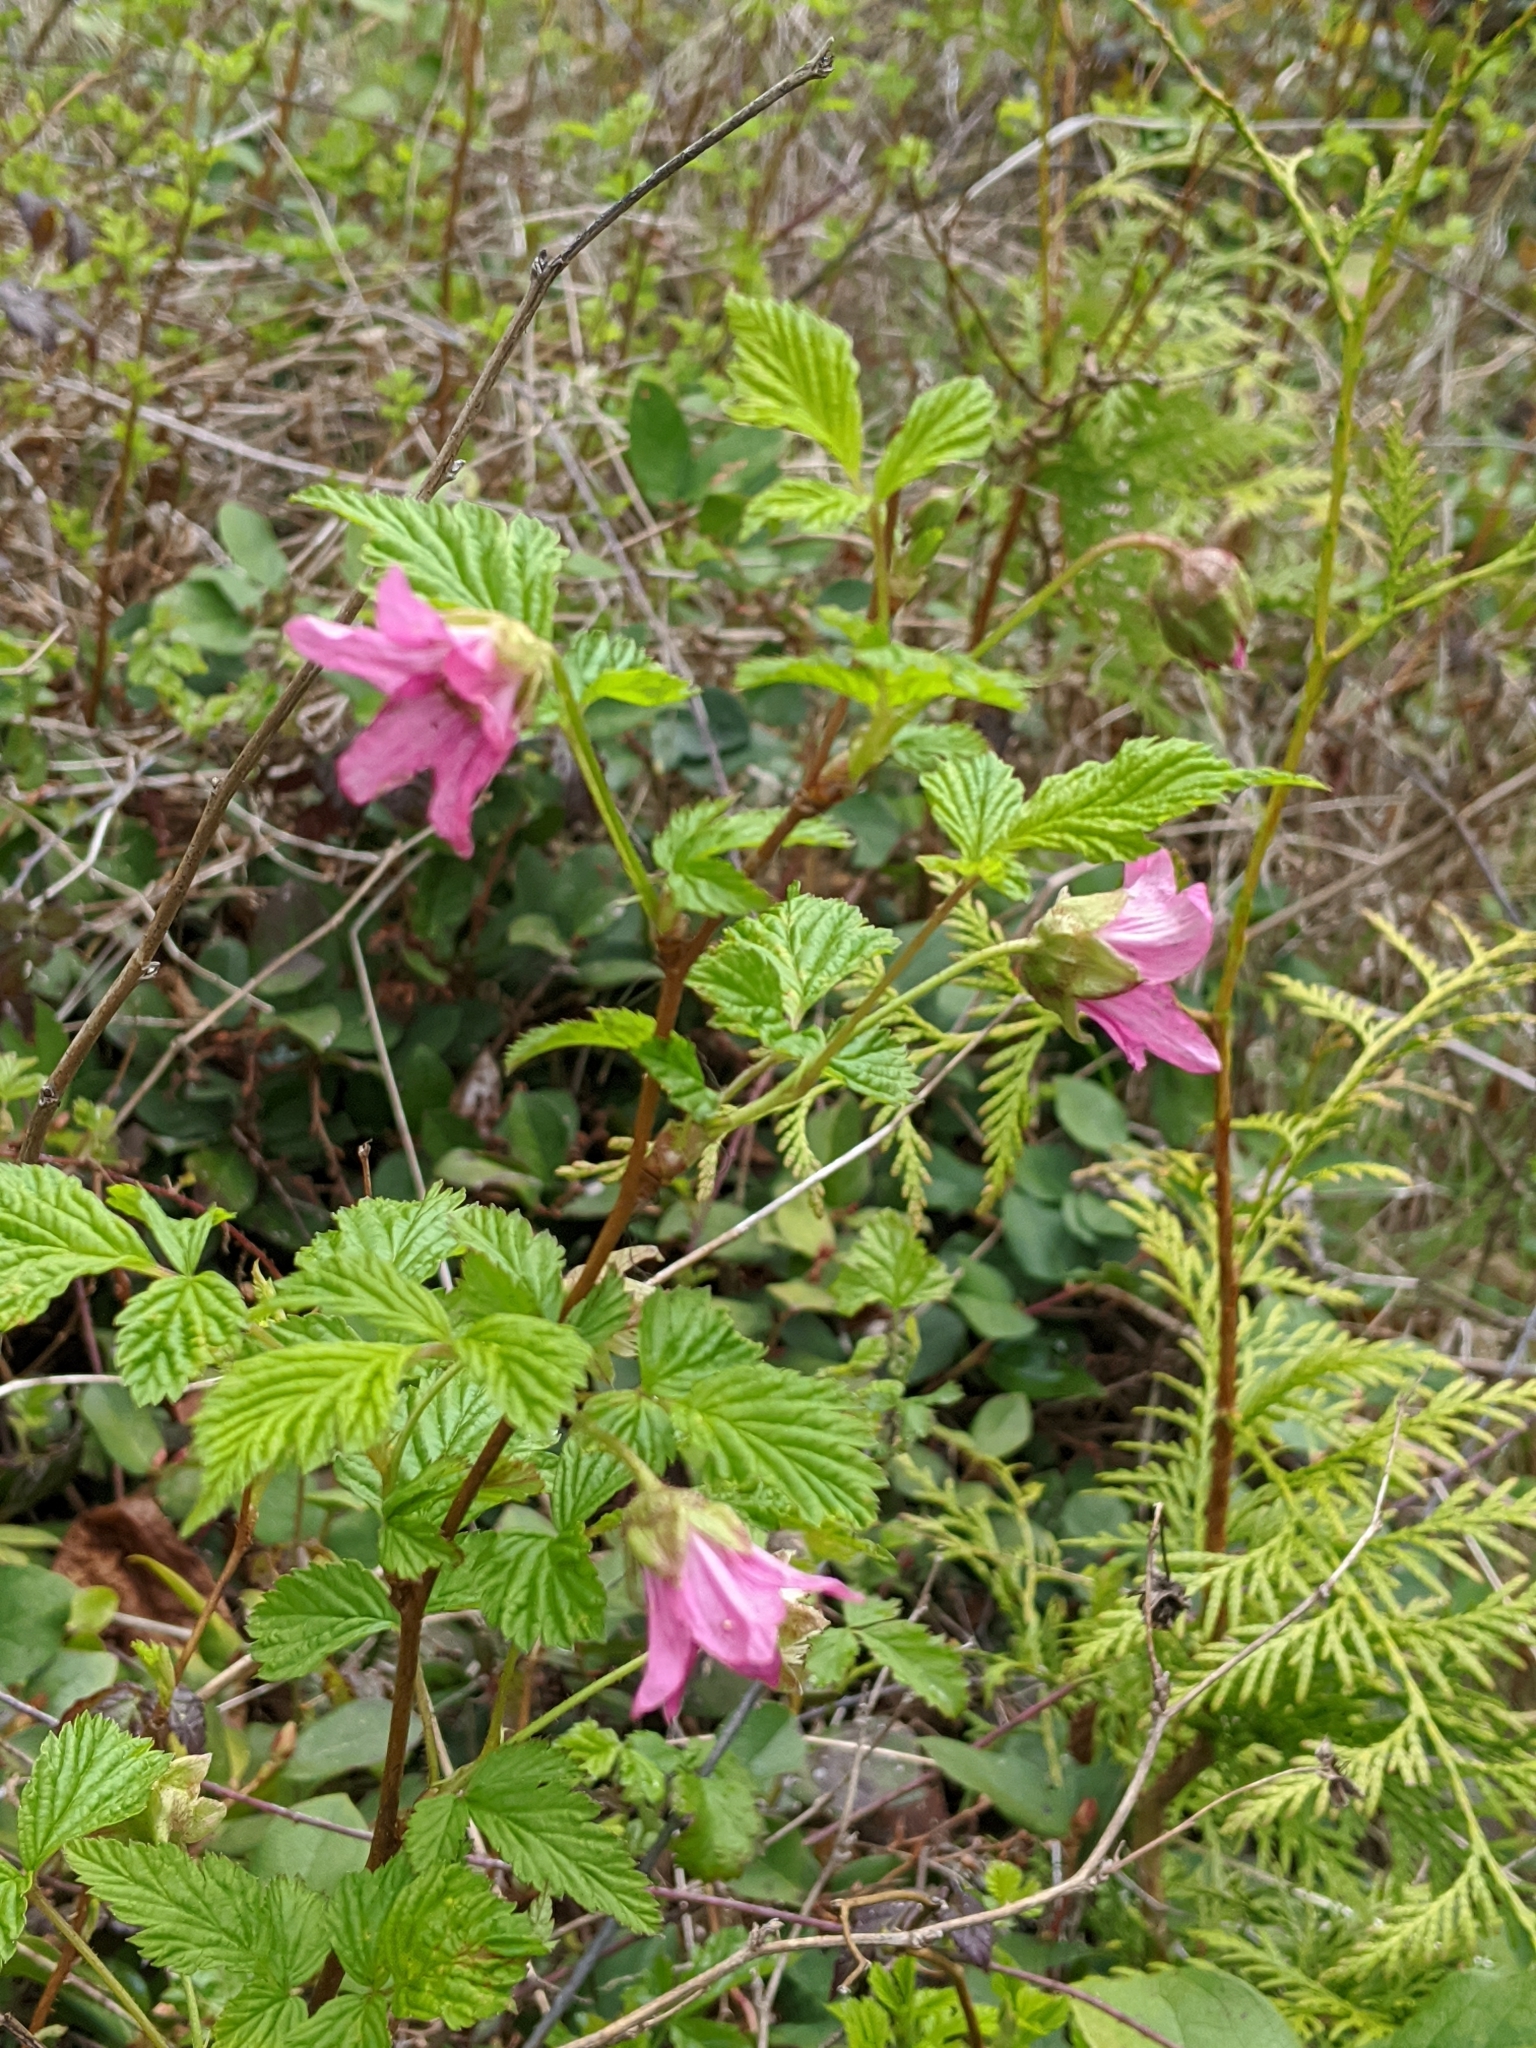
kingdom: Plantae
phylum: Tracheophyta
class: Magnoliopsida
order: Rosales
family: Rosaceae
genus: Rubus
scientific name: Rubus spectabilis
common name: Salmonberry
